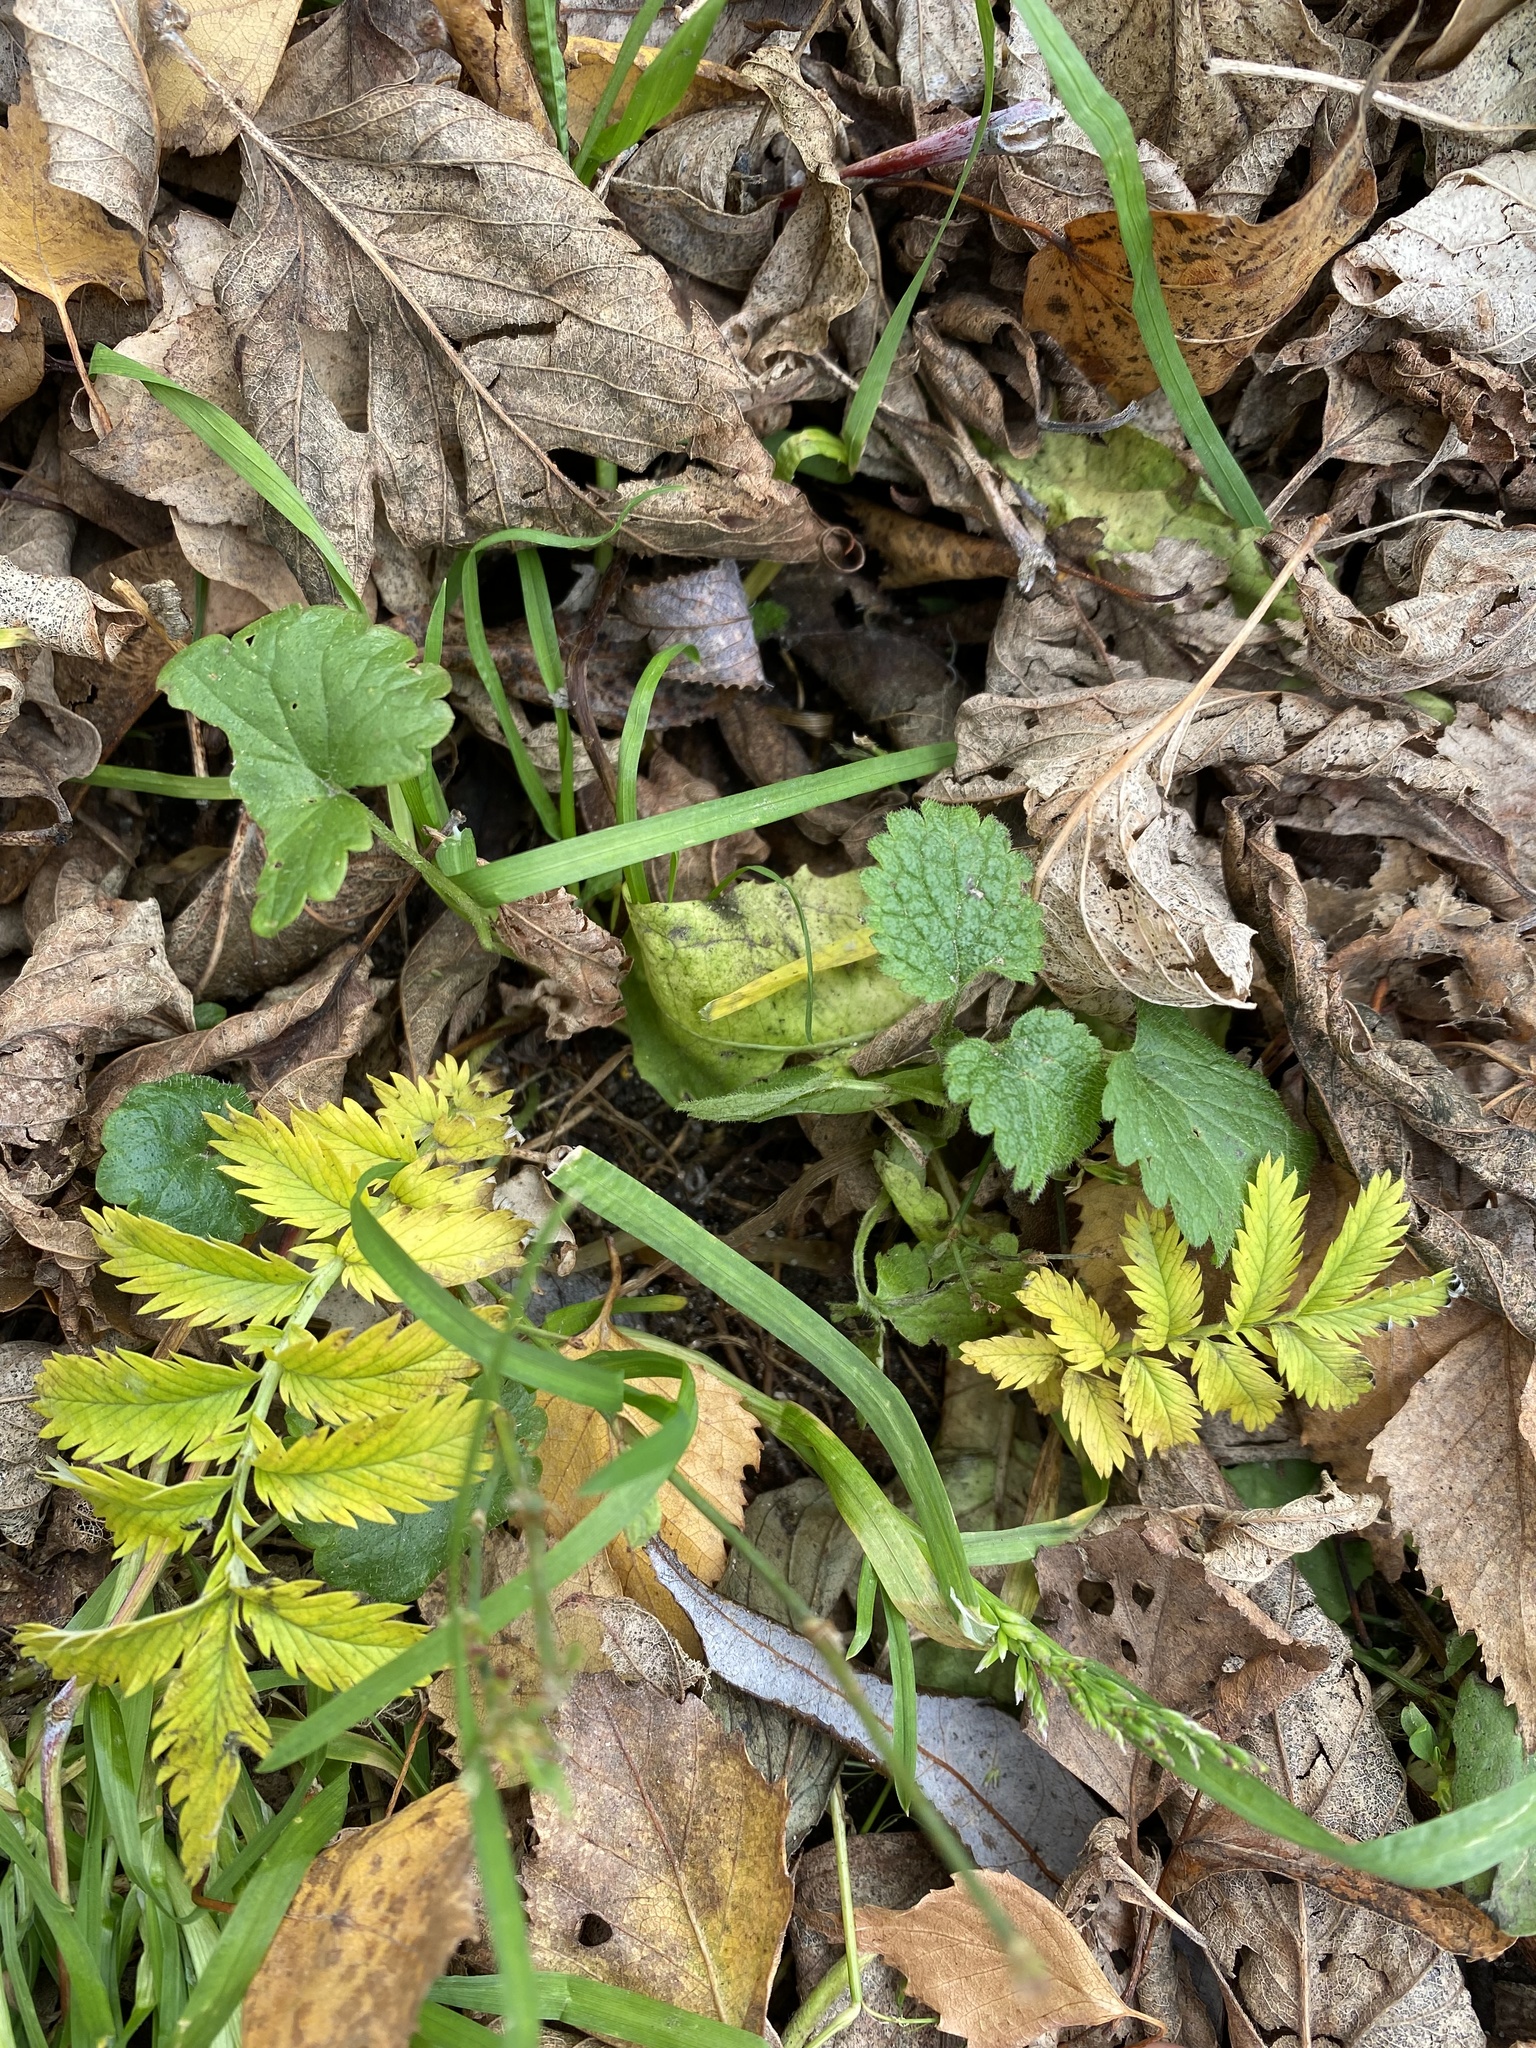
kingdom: Plantae
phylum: Tracheophyta
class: Magnoliopsida
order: Rosales
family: Rosaceae
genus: Argentina
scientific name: Argentina anserina
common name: Common silverweed
